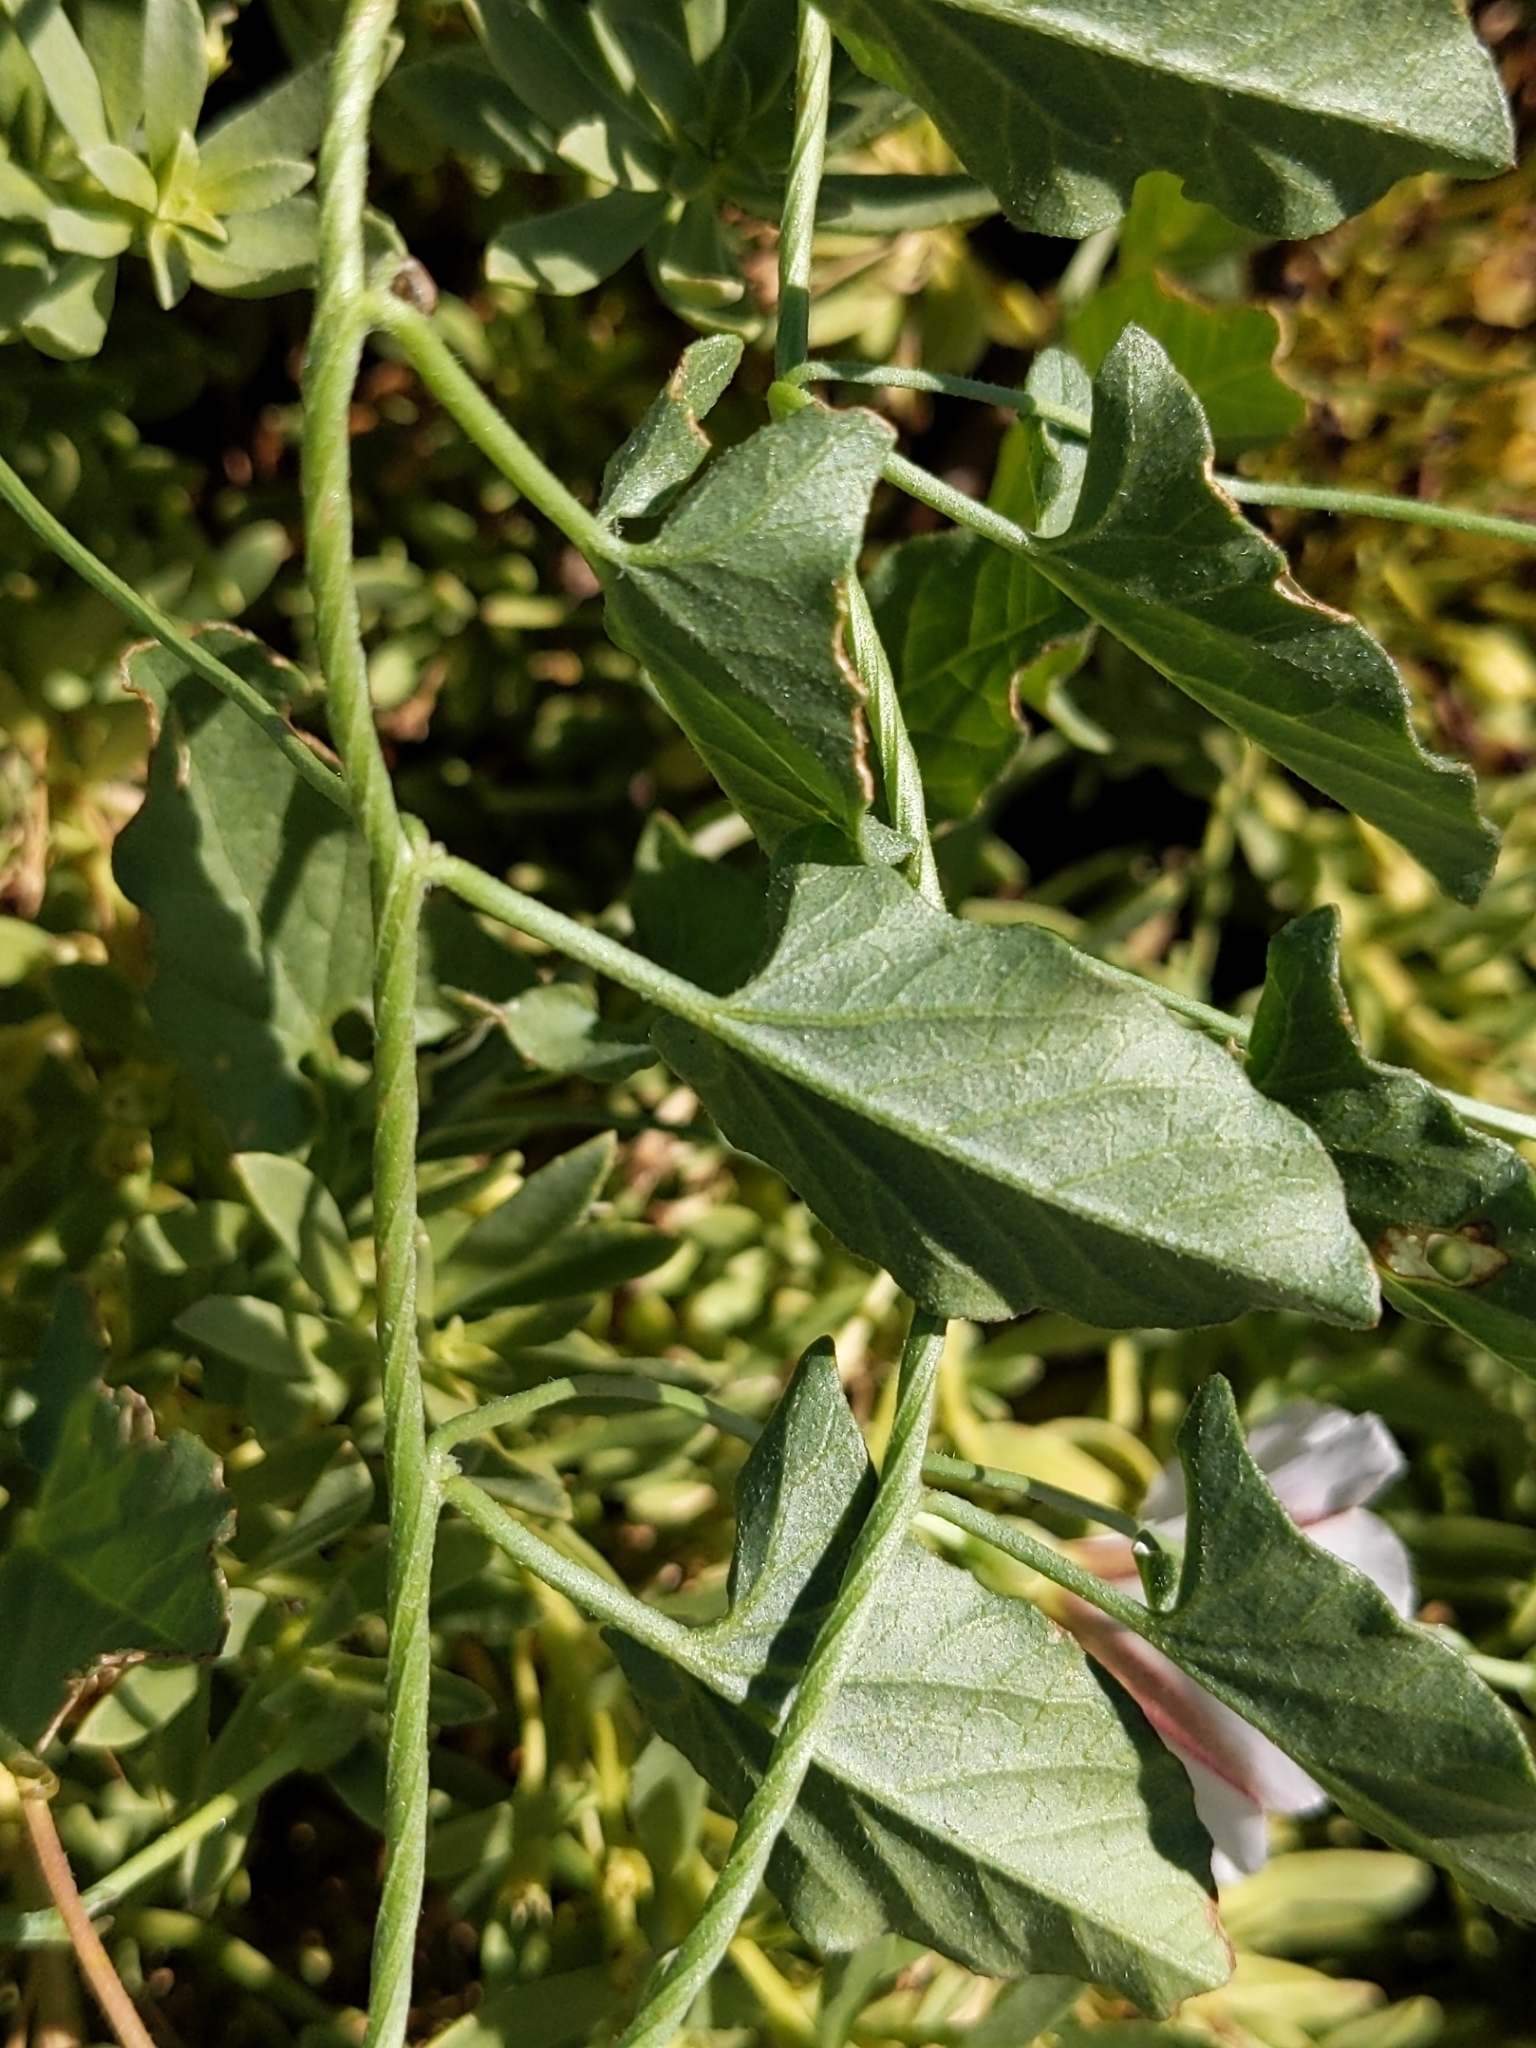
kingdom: Plantae
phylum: Tracheophyta
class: Magnoliopsida
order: Solanales
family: Convolvulaceae
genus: Convolvulus
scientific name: Convolvulus arvensis
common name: Field bindweed
